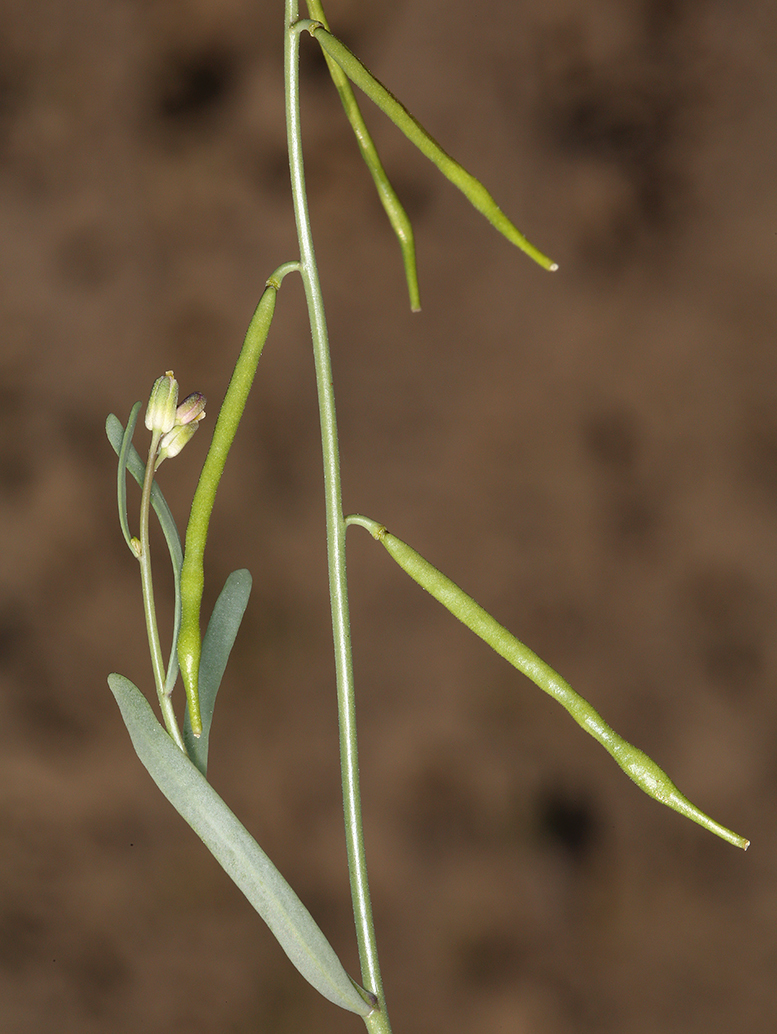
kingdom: Plantae
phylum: Tracheophyta
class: Magnoliopsida
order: Brassicales
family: Brassicaceae
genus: Streptanthus
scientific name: Streptanthus longirostris
